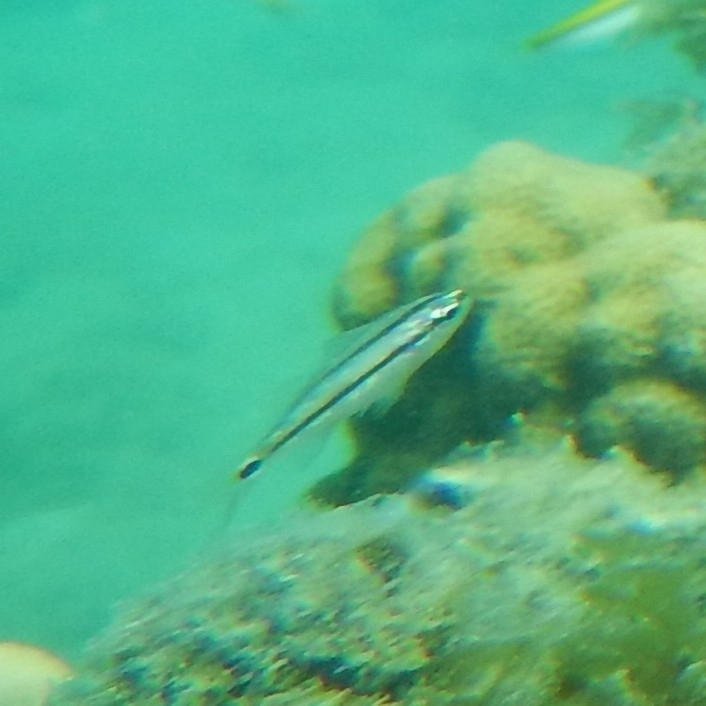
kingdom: Animalia
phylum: Chordata
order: Perciformes
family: Haemulidae
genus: Haemulon
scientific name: Haemulon flavolineatum
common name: French grunt
